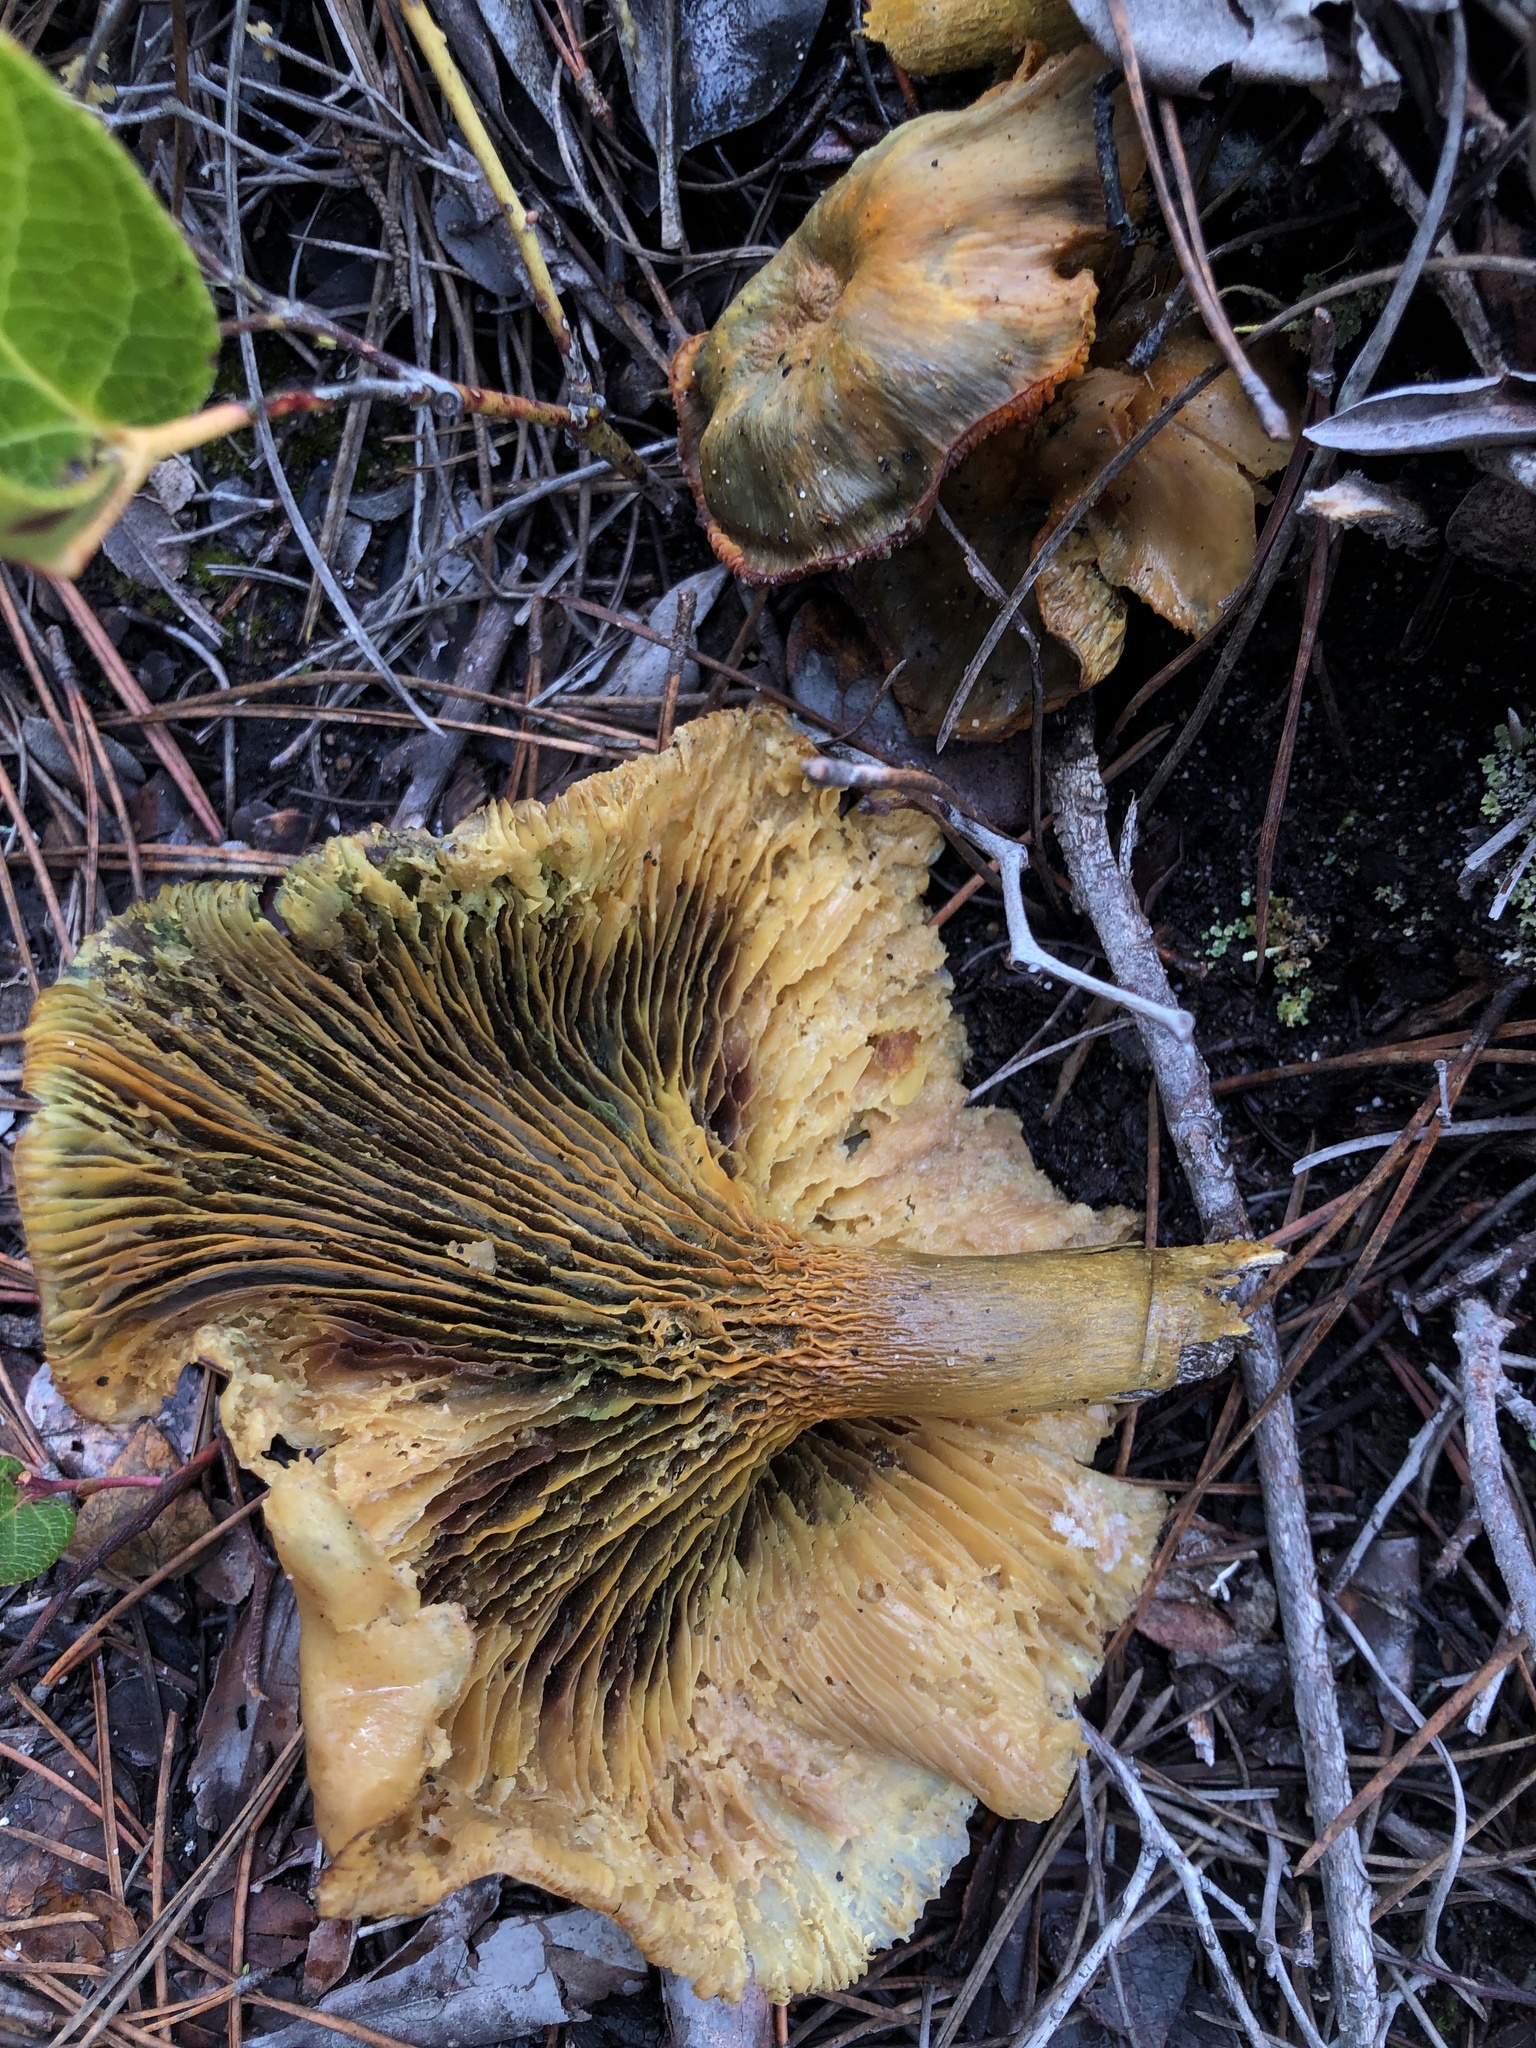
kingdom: Fungi
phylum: Basidiomycota
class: Agaricomycetes
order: Agaricales
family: Omphalotaceae
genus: Omphalotus
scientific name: Omphalotus olivascens
